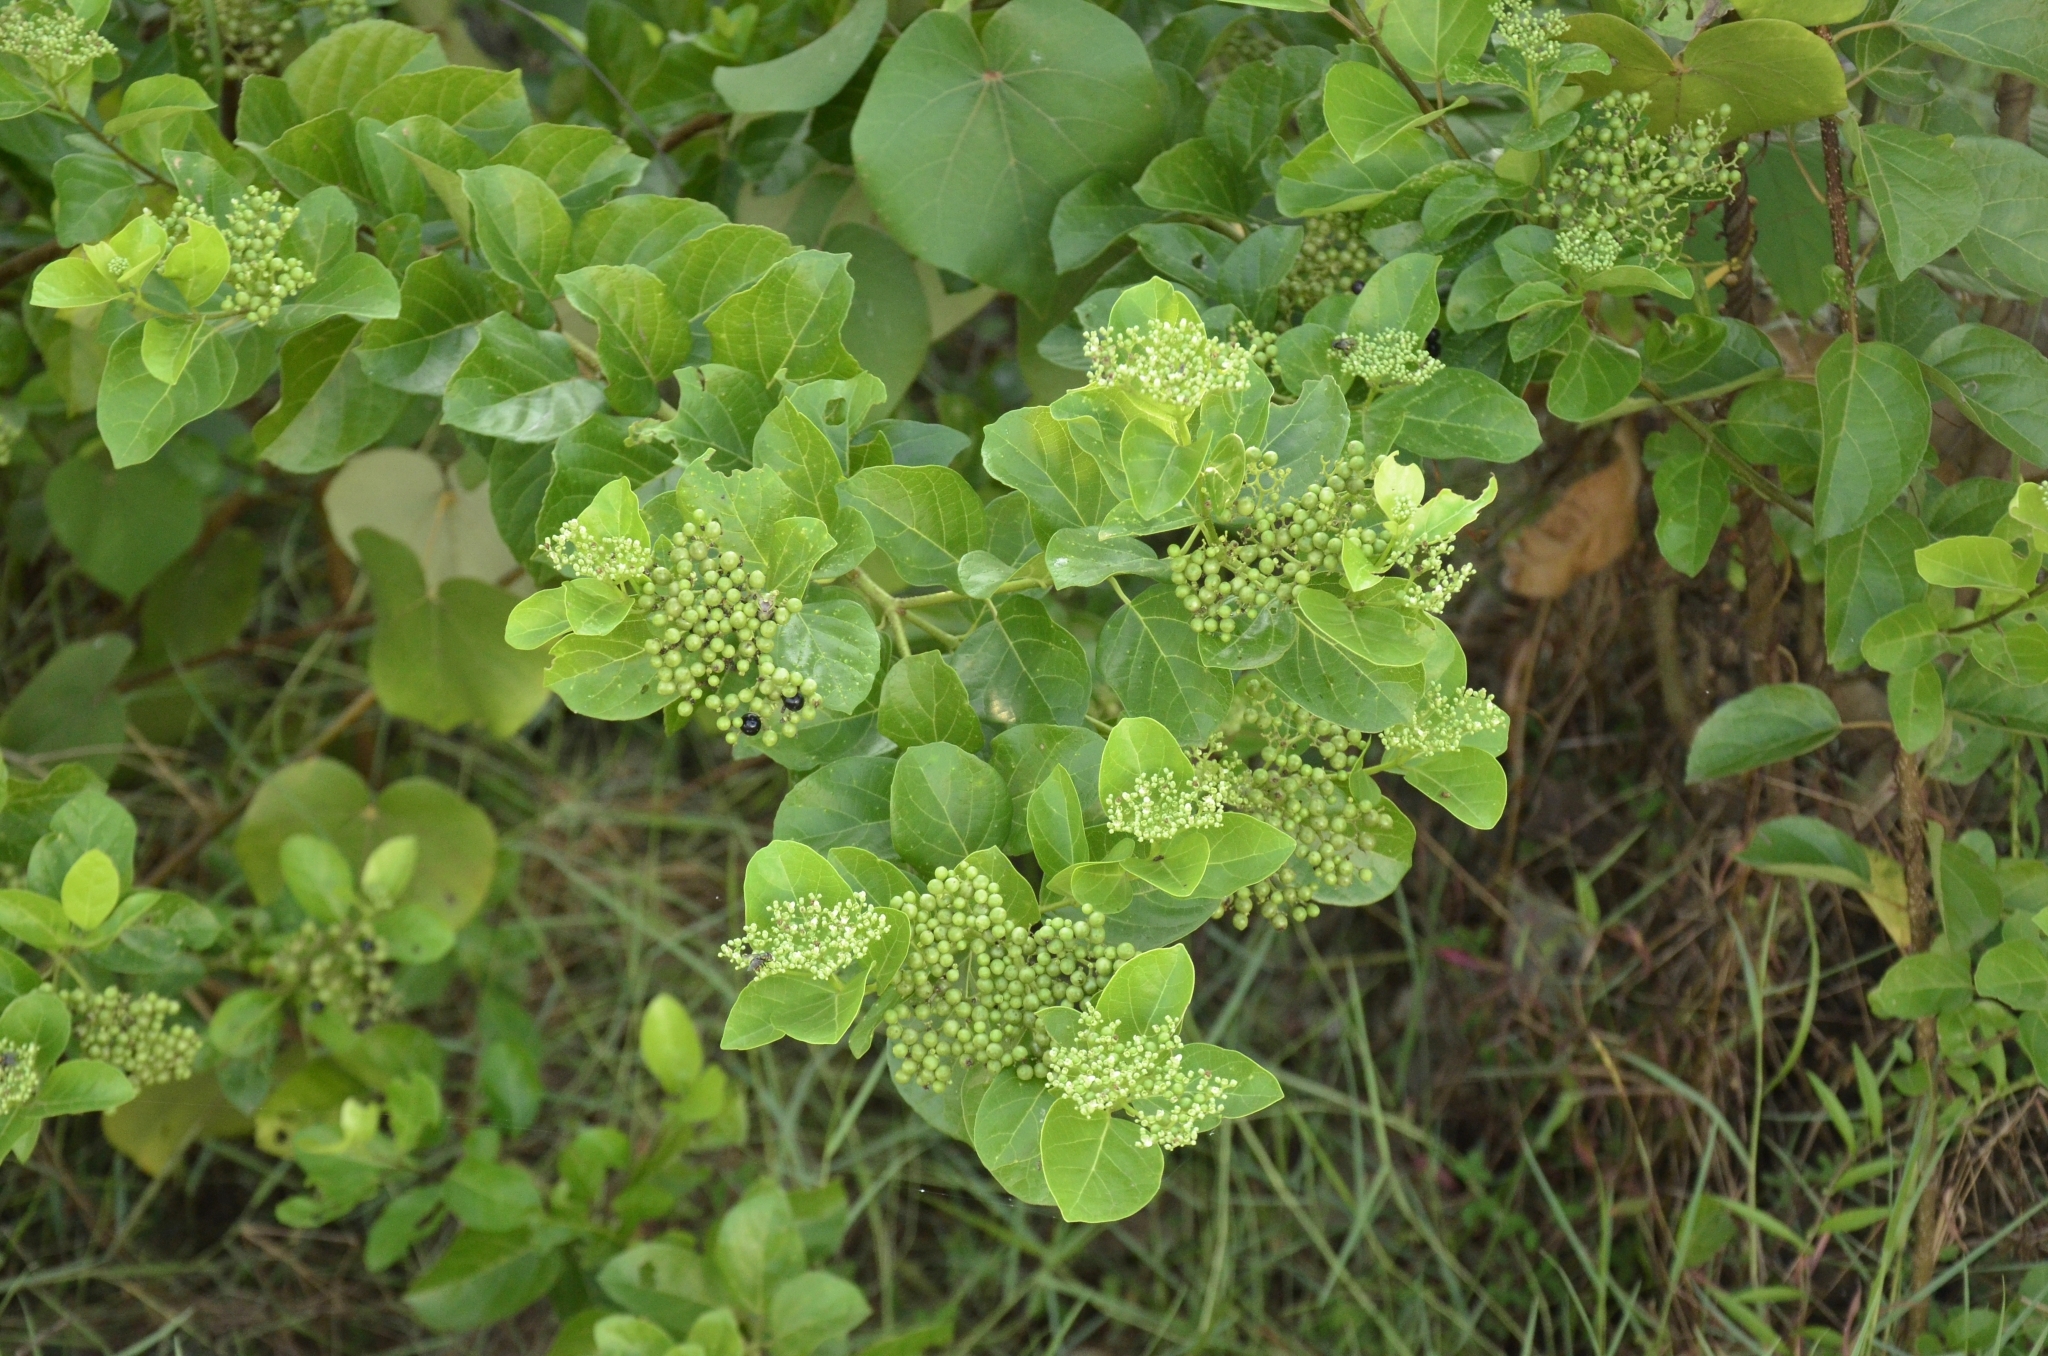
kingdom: Plantae
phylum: Tracheophyta
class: Magnoliopsida
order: Lamiales
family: Lamiaceae
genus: Premna
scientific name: Premna serratifolia
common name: Bastard guelder
